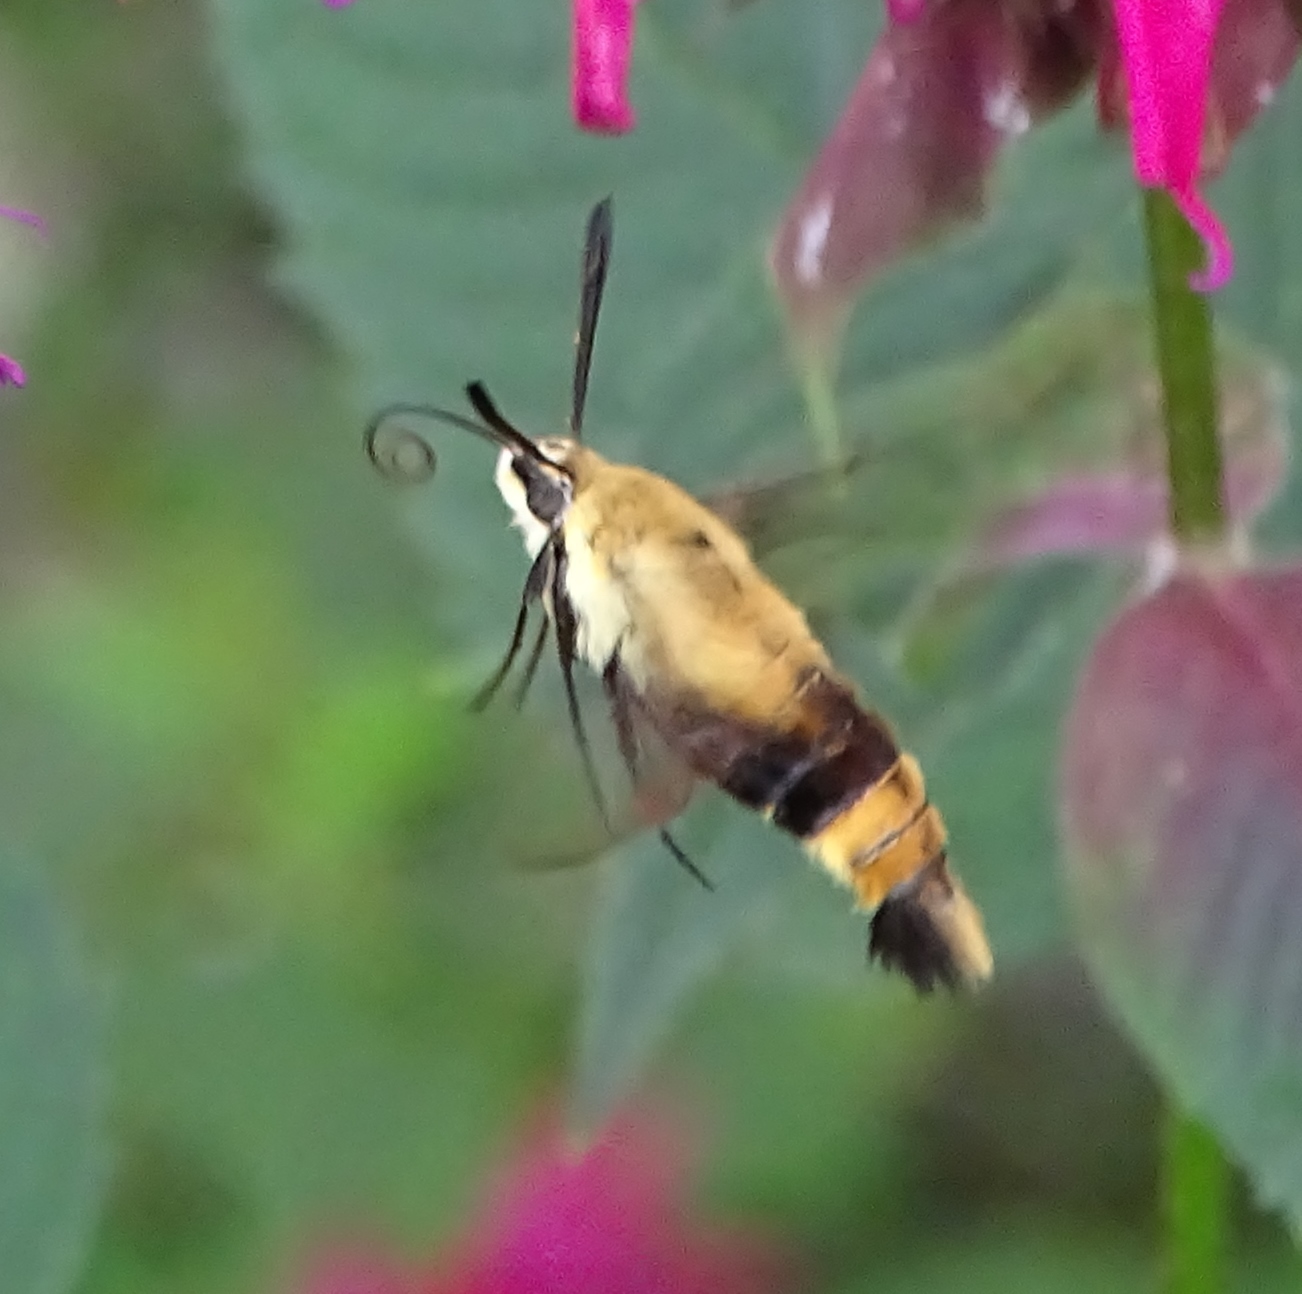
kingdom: Animalia
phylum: Arthropoda
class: Insecta
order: Lepidoptera
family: Sphingidae
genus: Hemaris
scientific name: Hemaris diffinis
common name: Bumblebee moth
